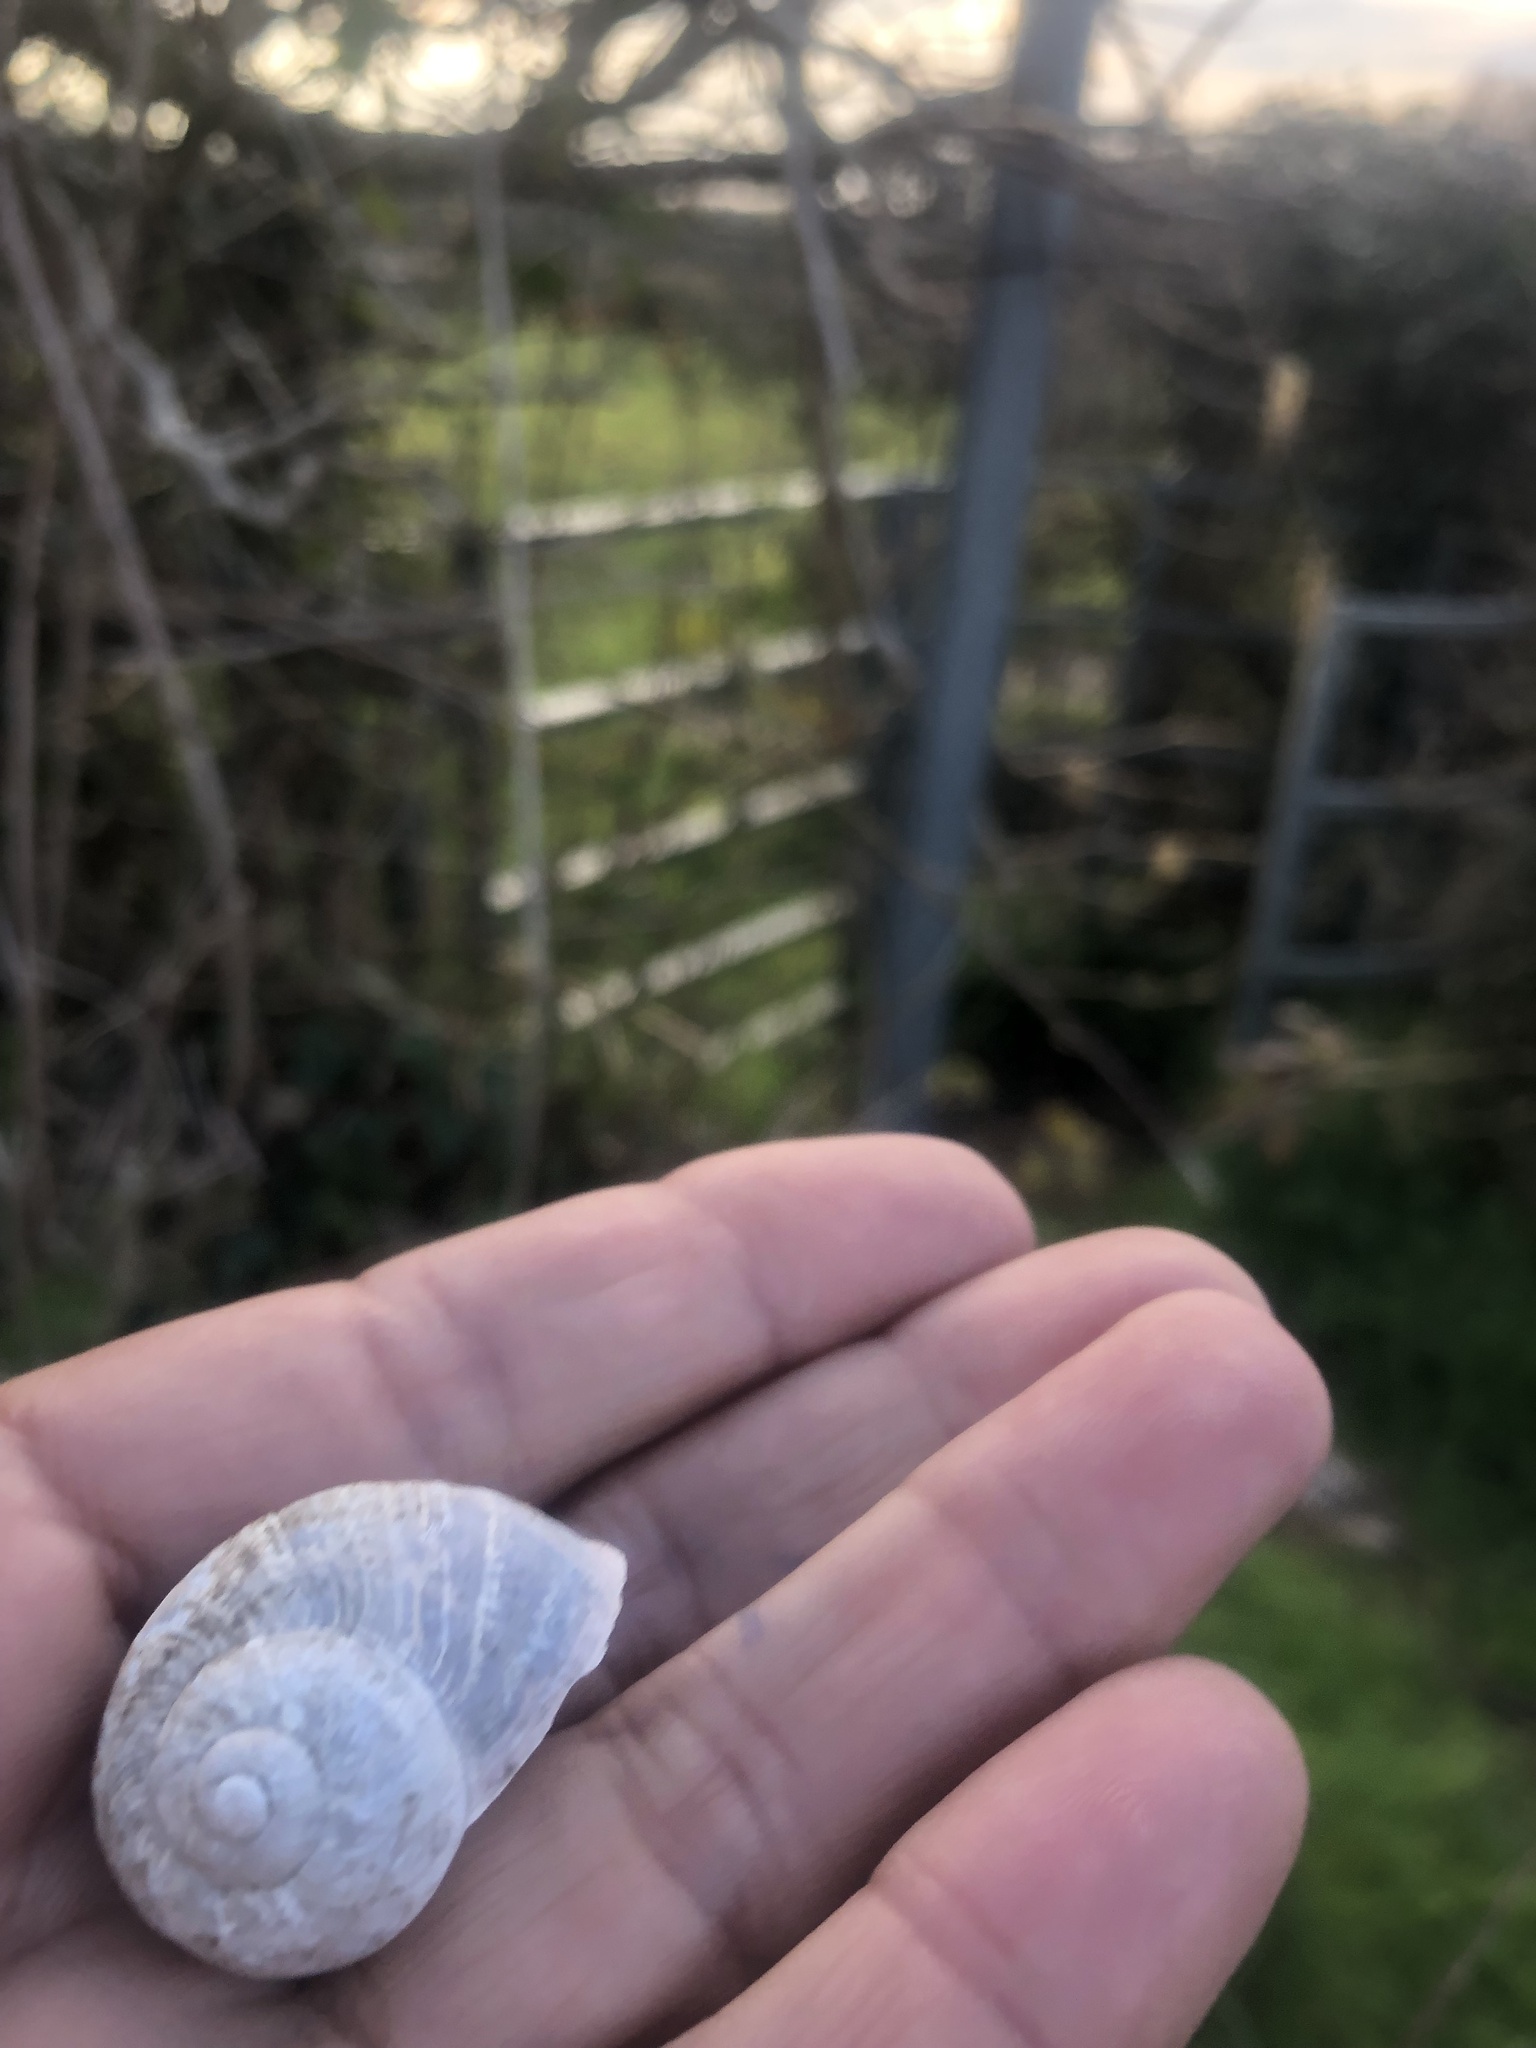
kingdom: Animalia
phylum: Mollusca
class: Gastropoda
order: Stylommatophora
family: Helicidae
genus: Cornu
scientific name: Cornu aspersum
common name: Brown garden snail
